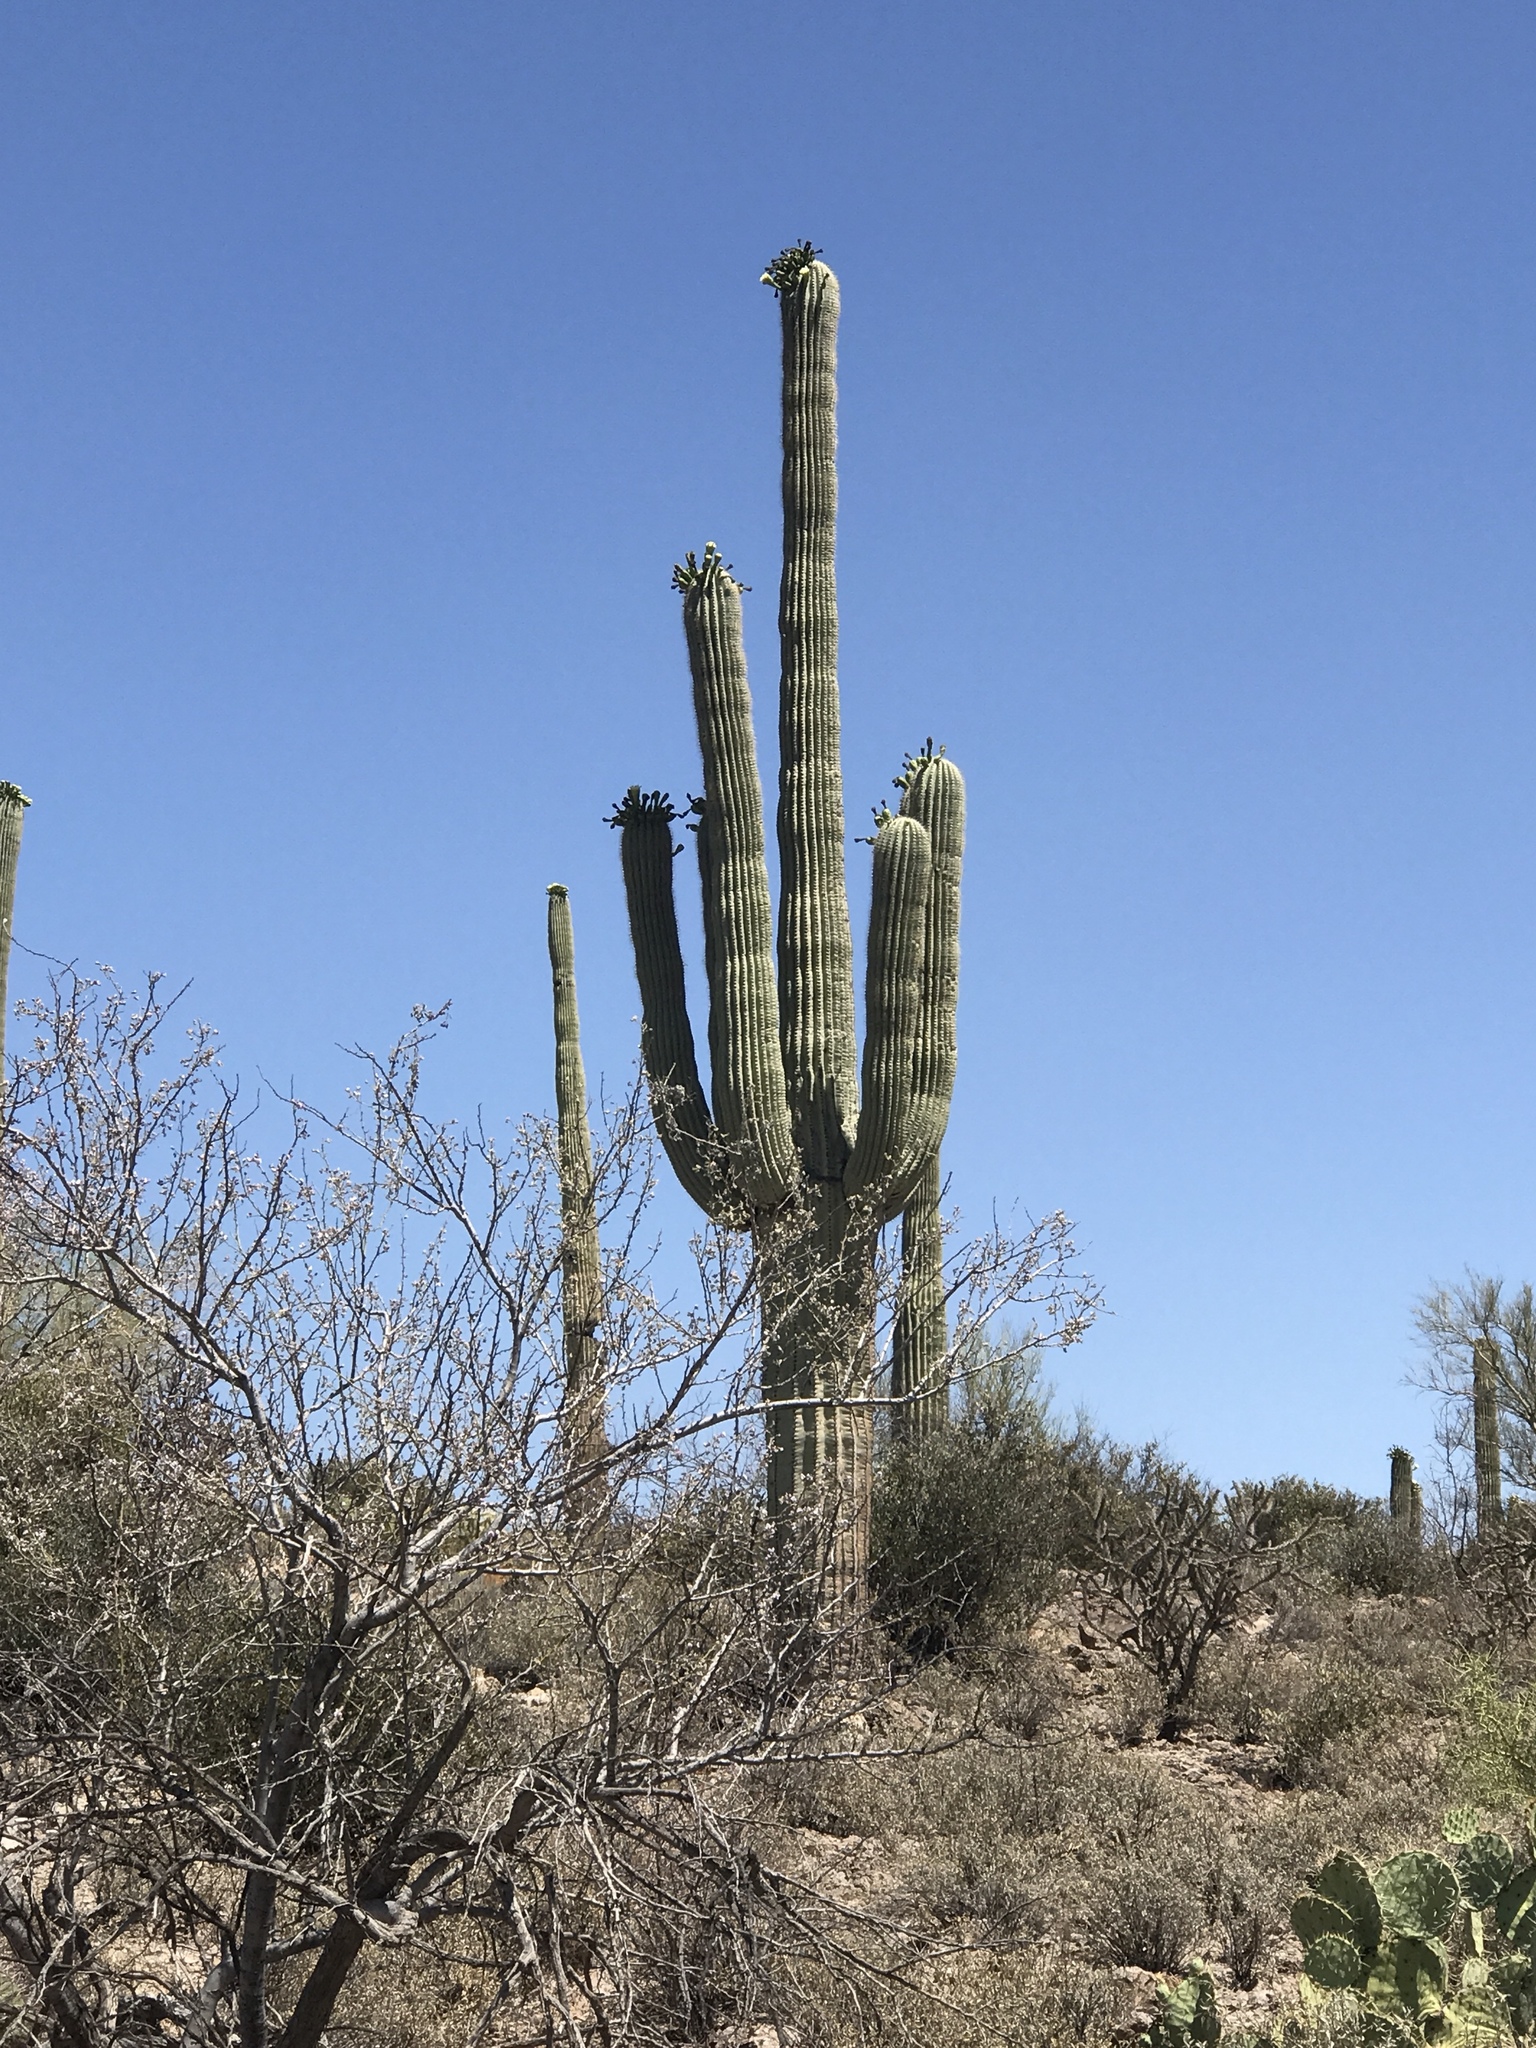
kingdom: Plantae
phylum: Tracheophyta
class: Magnoliopsida
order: Caryophyllales
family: Cactaceae
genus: Carnegiea
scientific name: Carnegiea gigantea
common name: Saguaro
